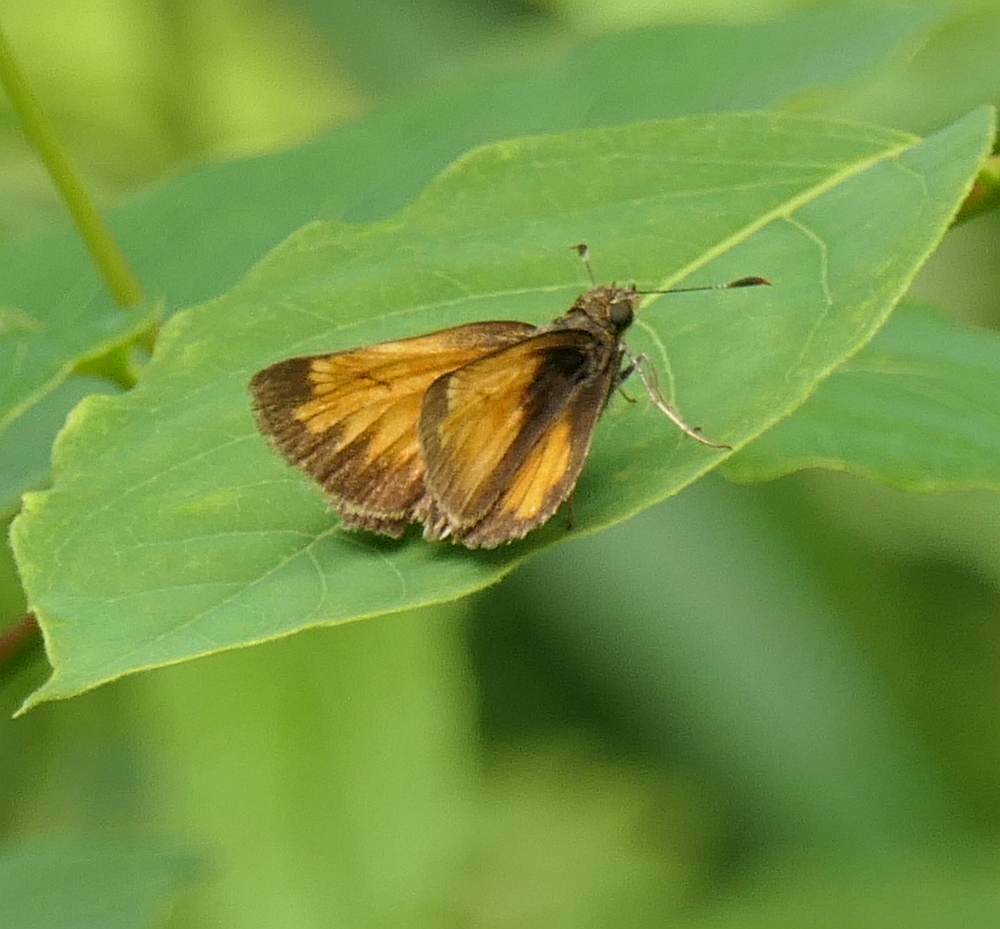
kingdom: Animalia
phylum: Arthropoda
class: Insecta
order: Lepidoptera
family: Hesperiidae
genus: Lon
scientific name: Lon hobomok
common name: Hobomok skipper
